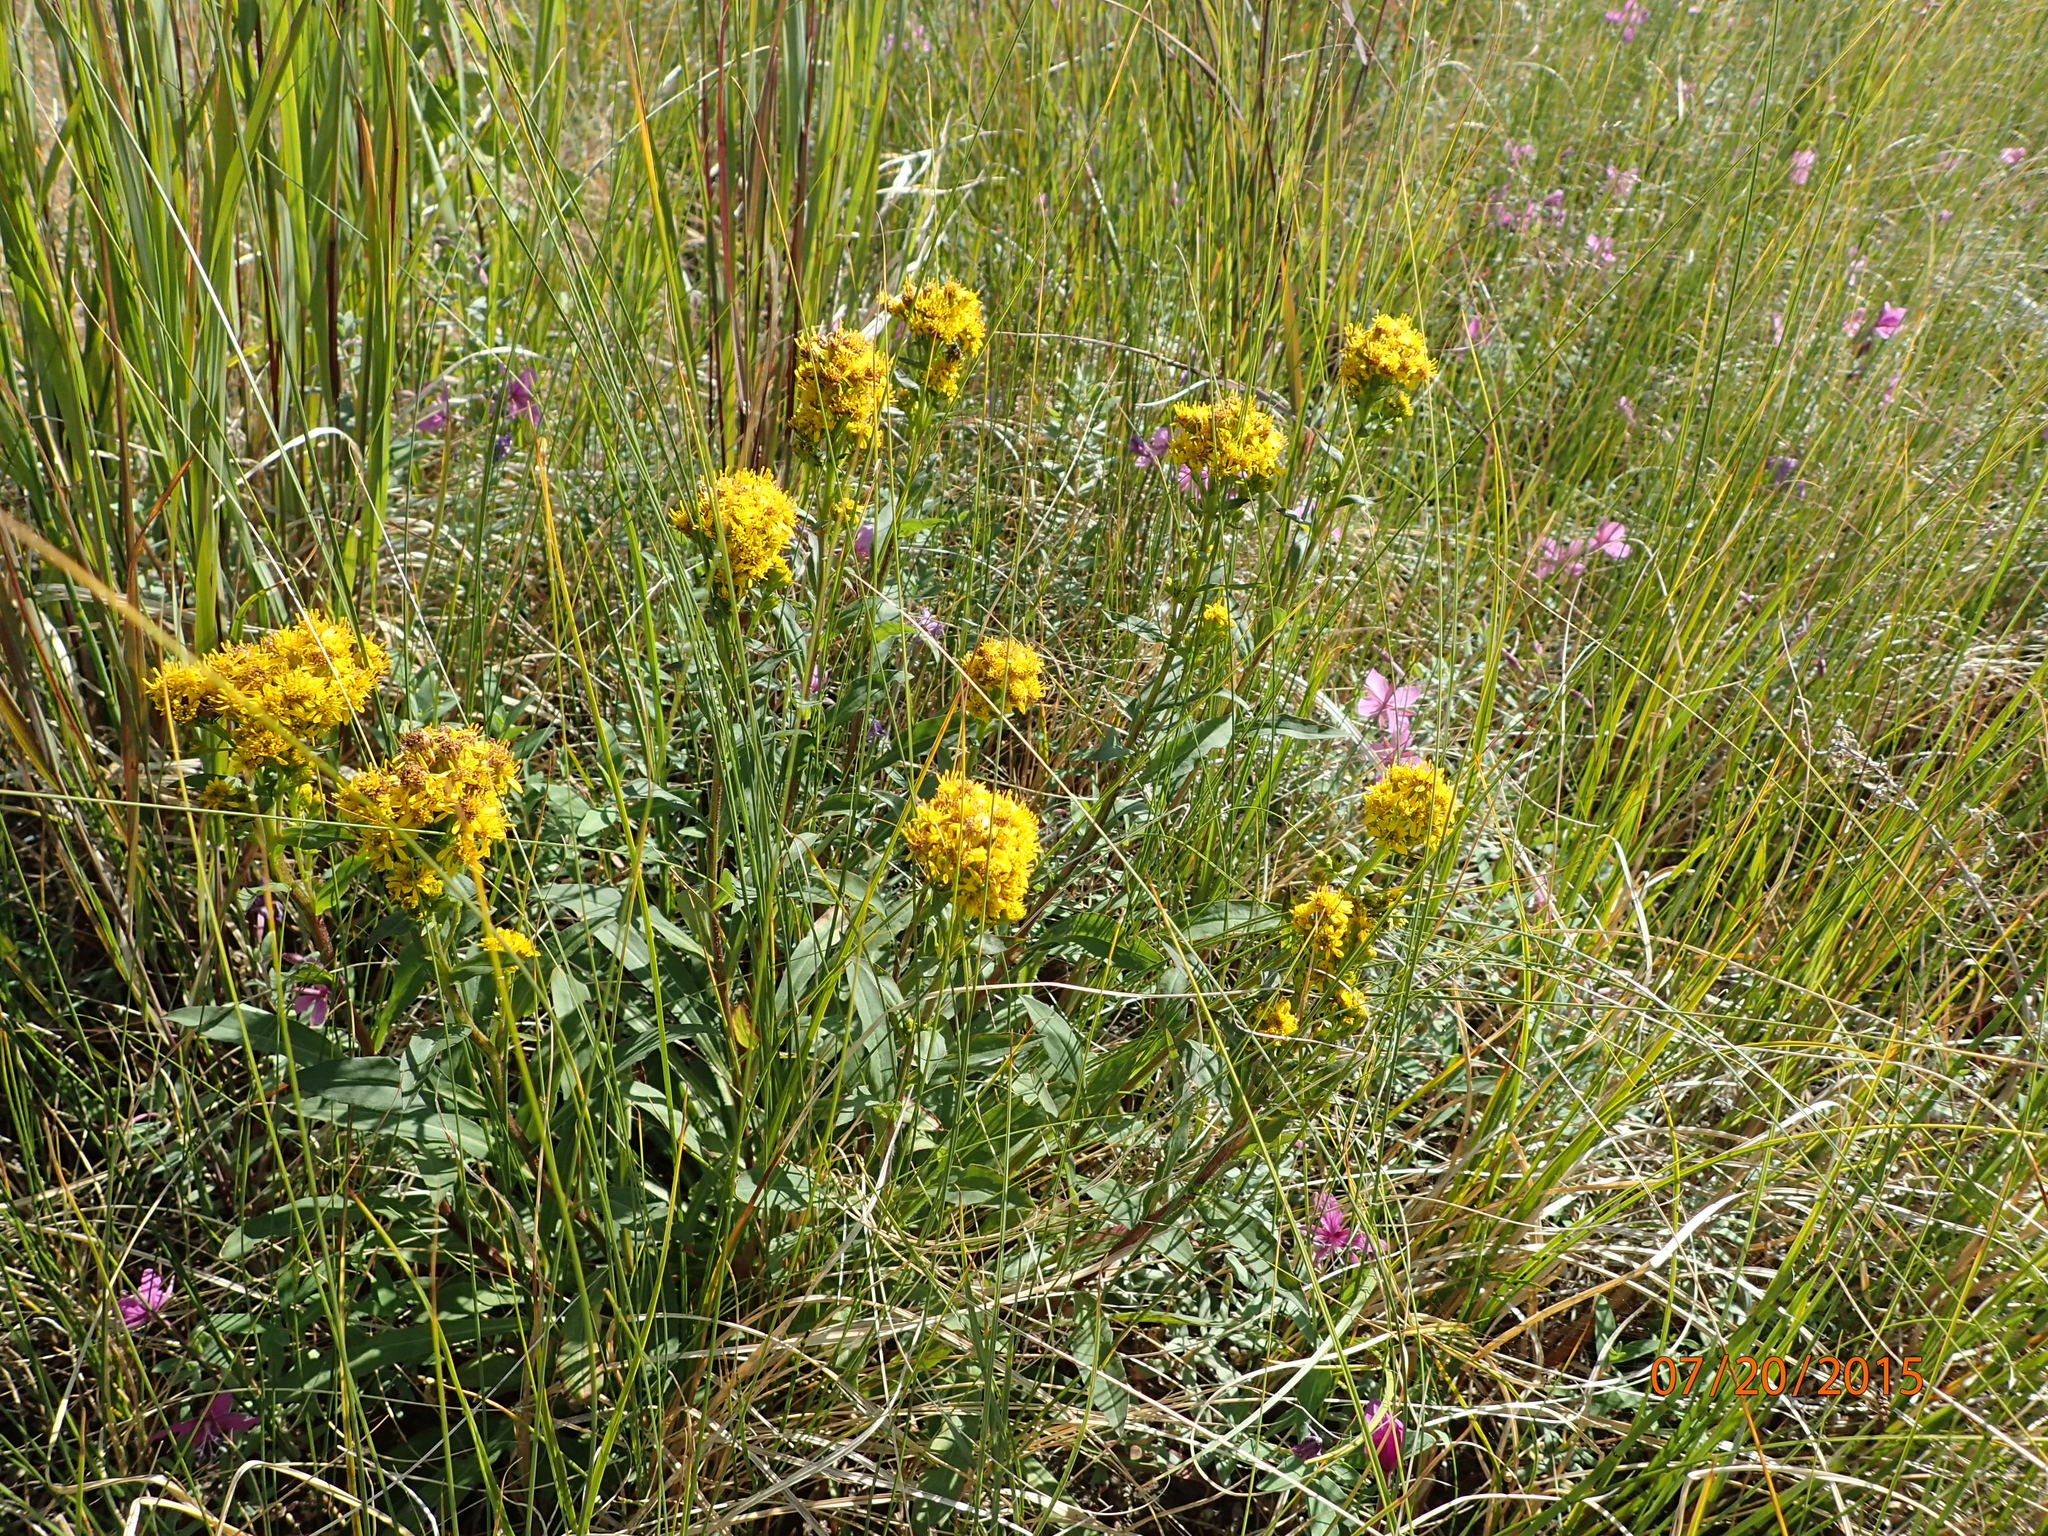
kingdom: Plantae
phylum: Tracheophyta
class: Magnoliopsida
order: Asterales
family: Asteraceae
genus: Solidago
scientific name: Solidago multiradiata
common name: Northern goldenrod
